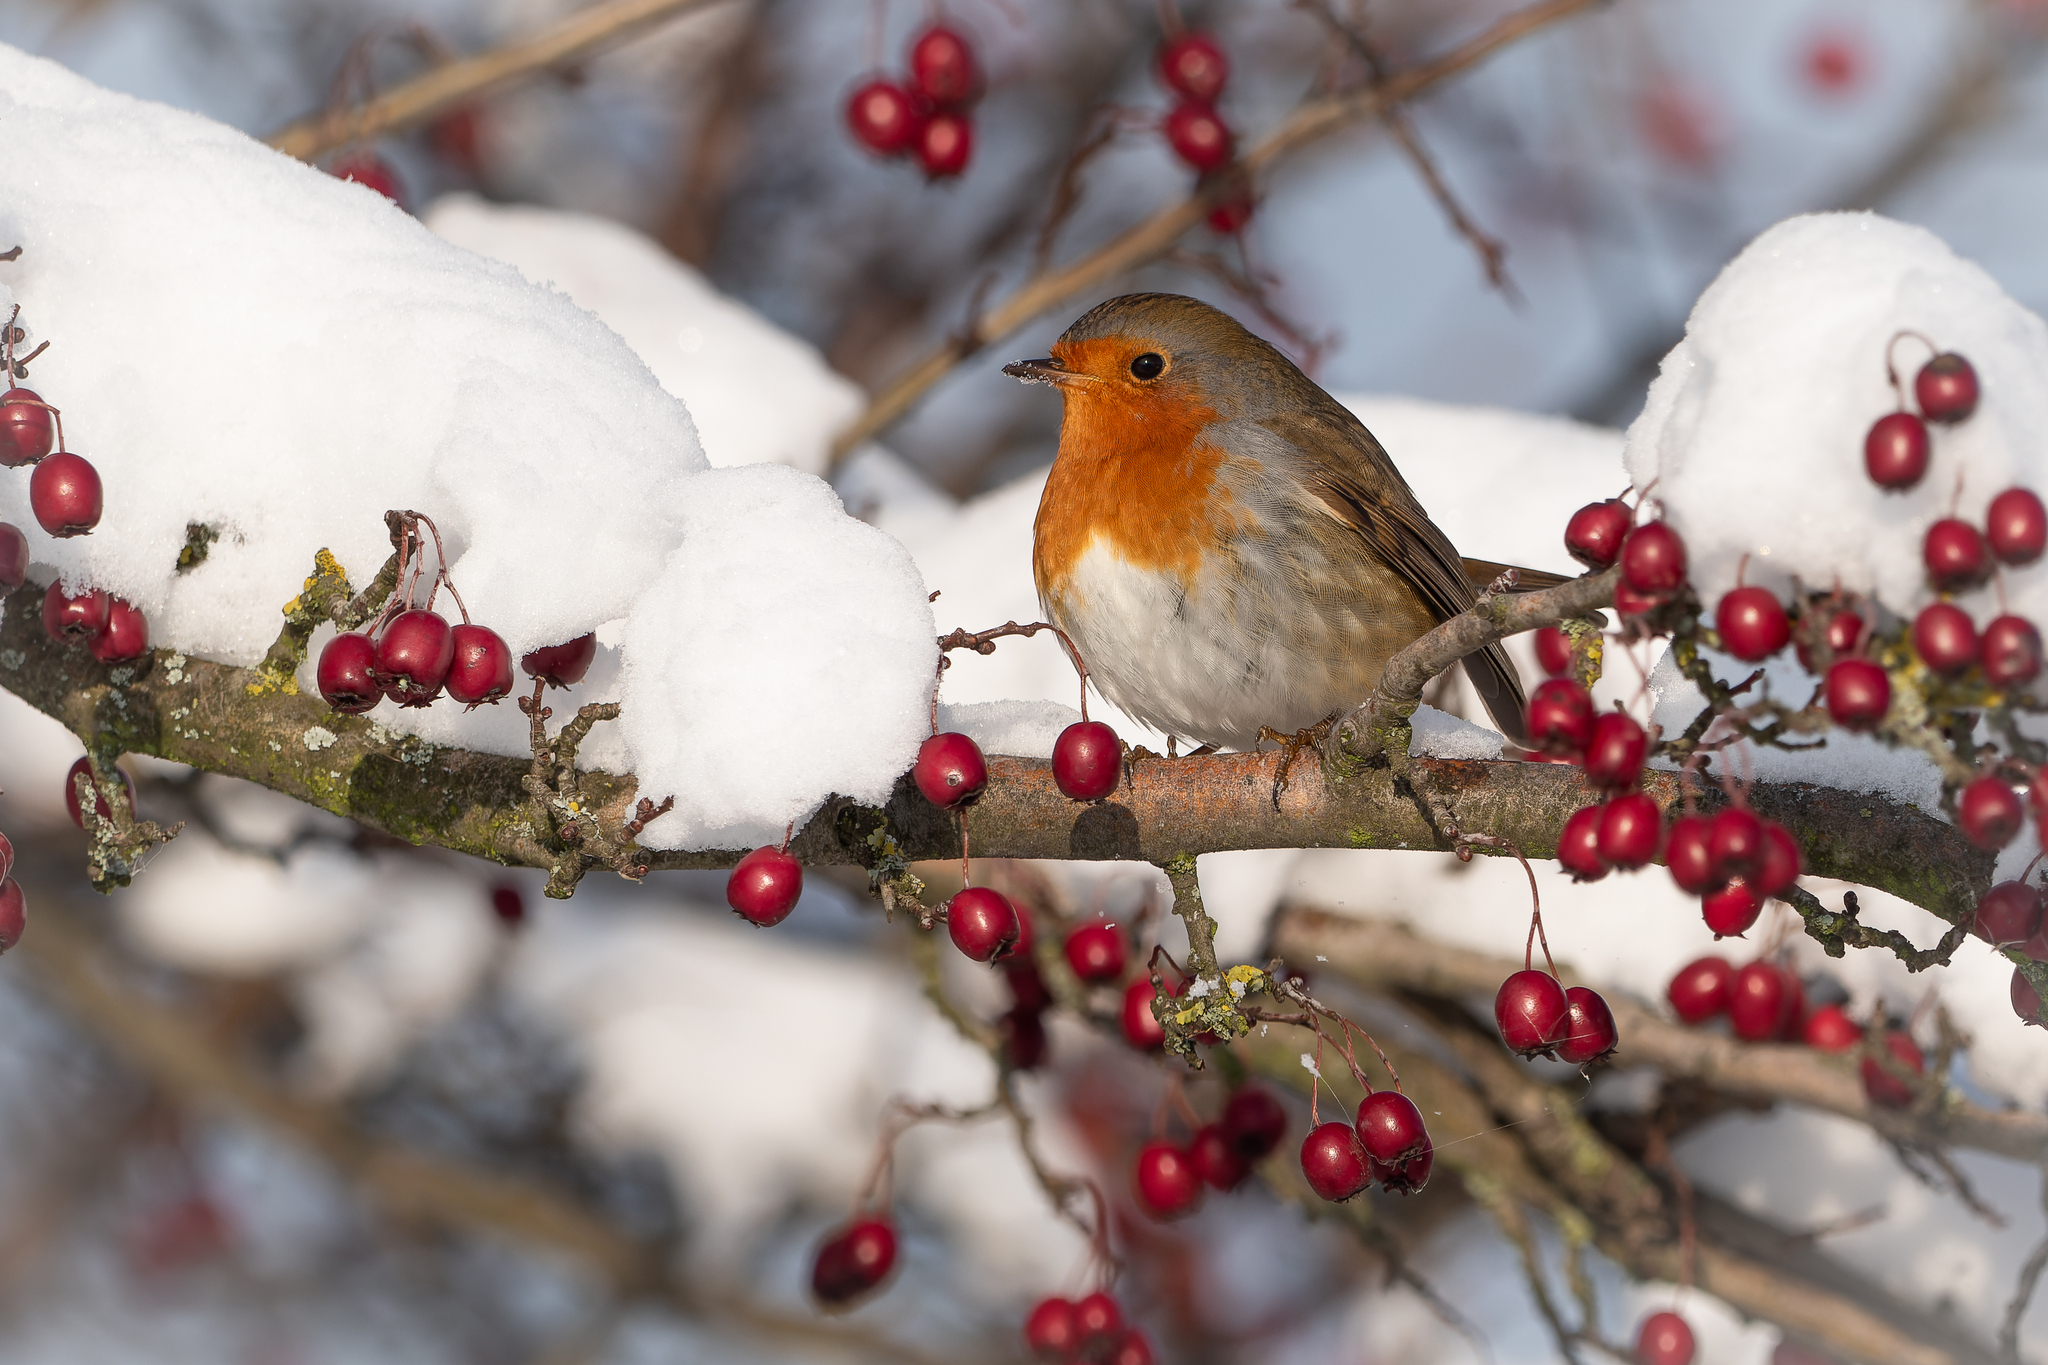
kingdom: Animalia
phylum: Chordata
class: Aves
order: Passeriformes
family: Muscicapidae
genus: Erithacus
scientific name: Erithacus rubecula
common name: European robin
